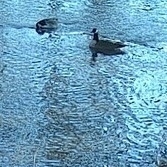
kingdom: Animalia
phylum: Chordata
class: Aves
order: Anseriformes
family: Anatidae
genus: Branta
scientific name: Branta canadensis
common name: Canada goose
